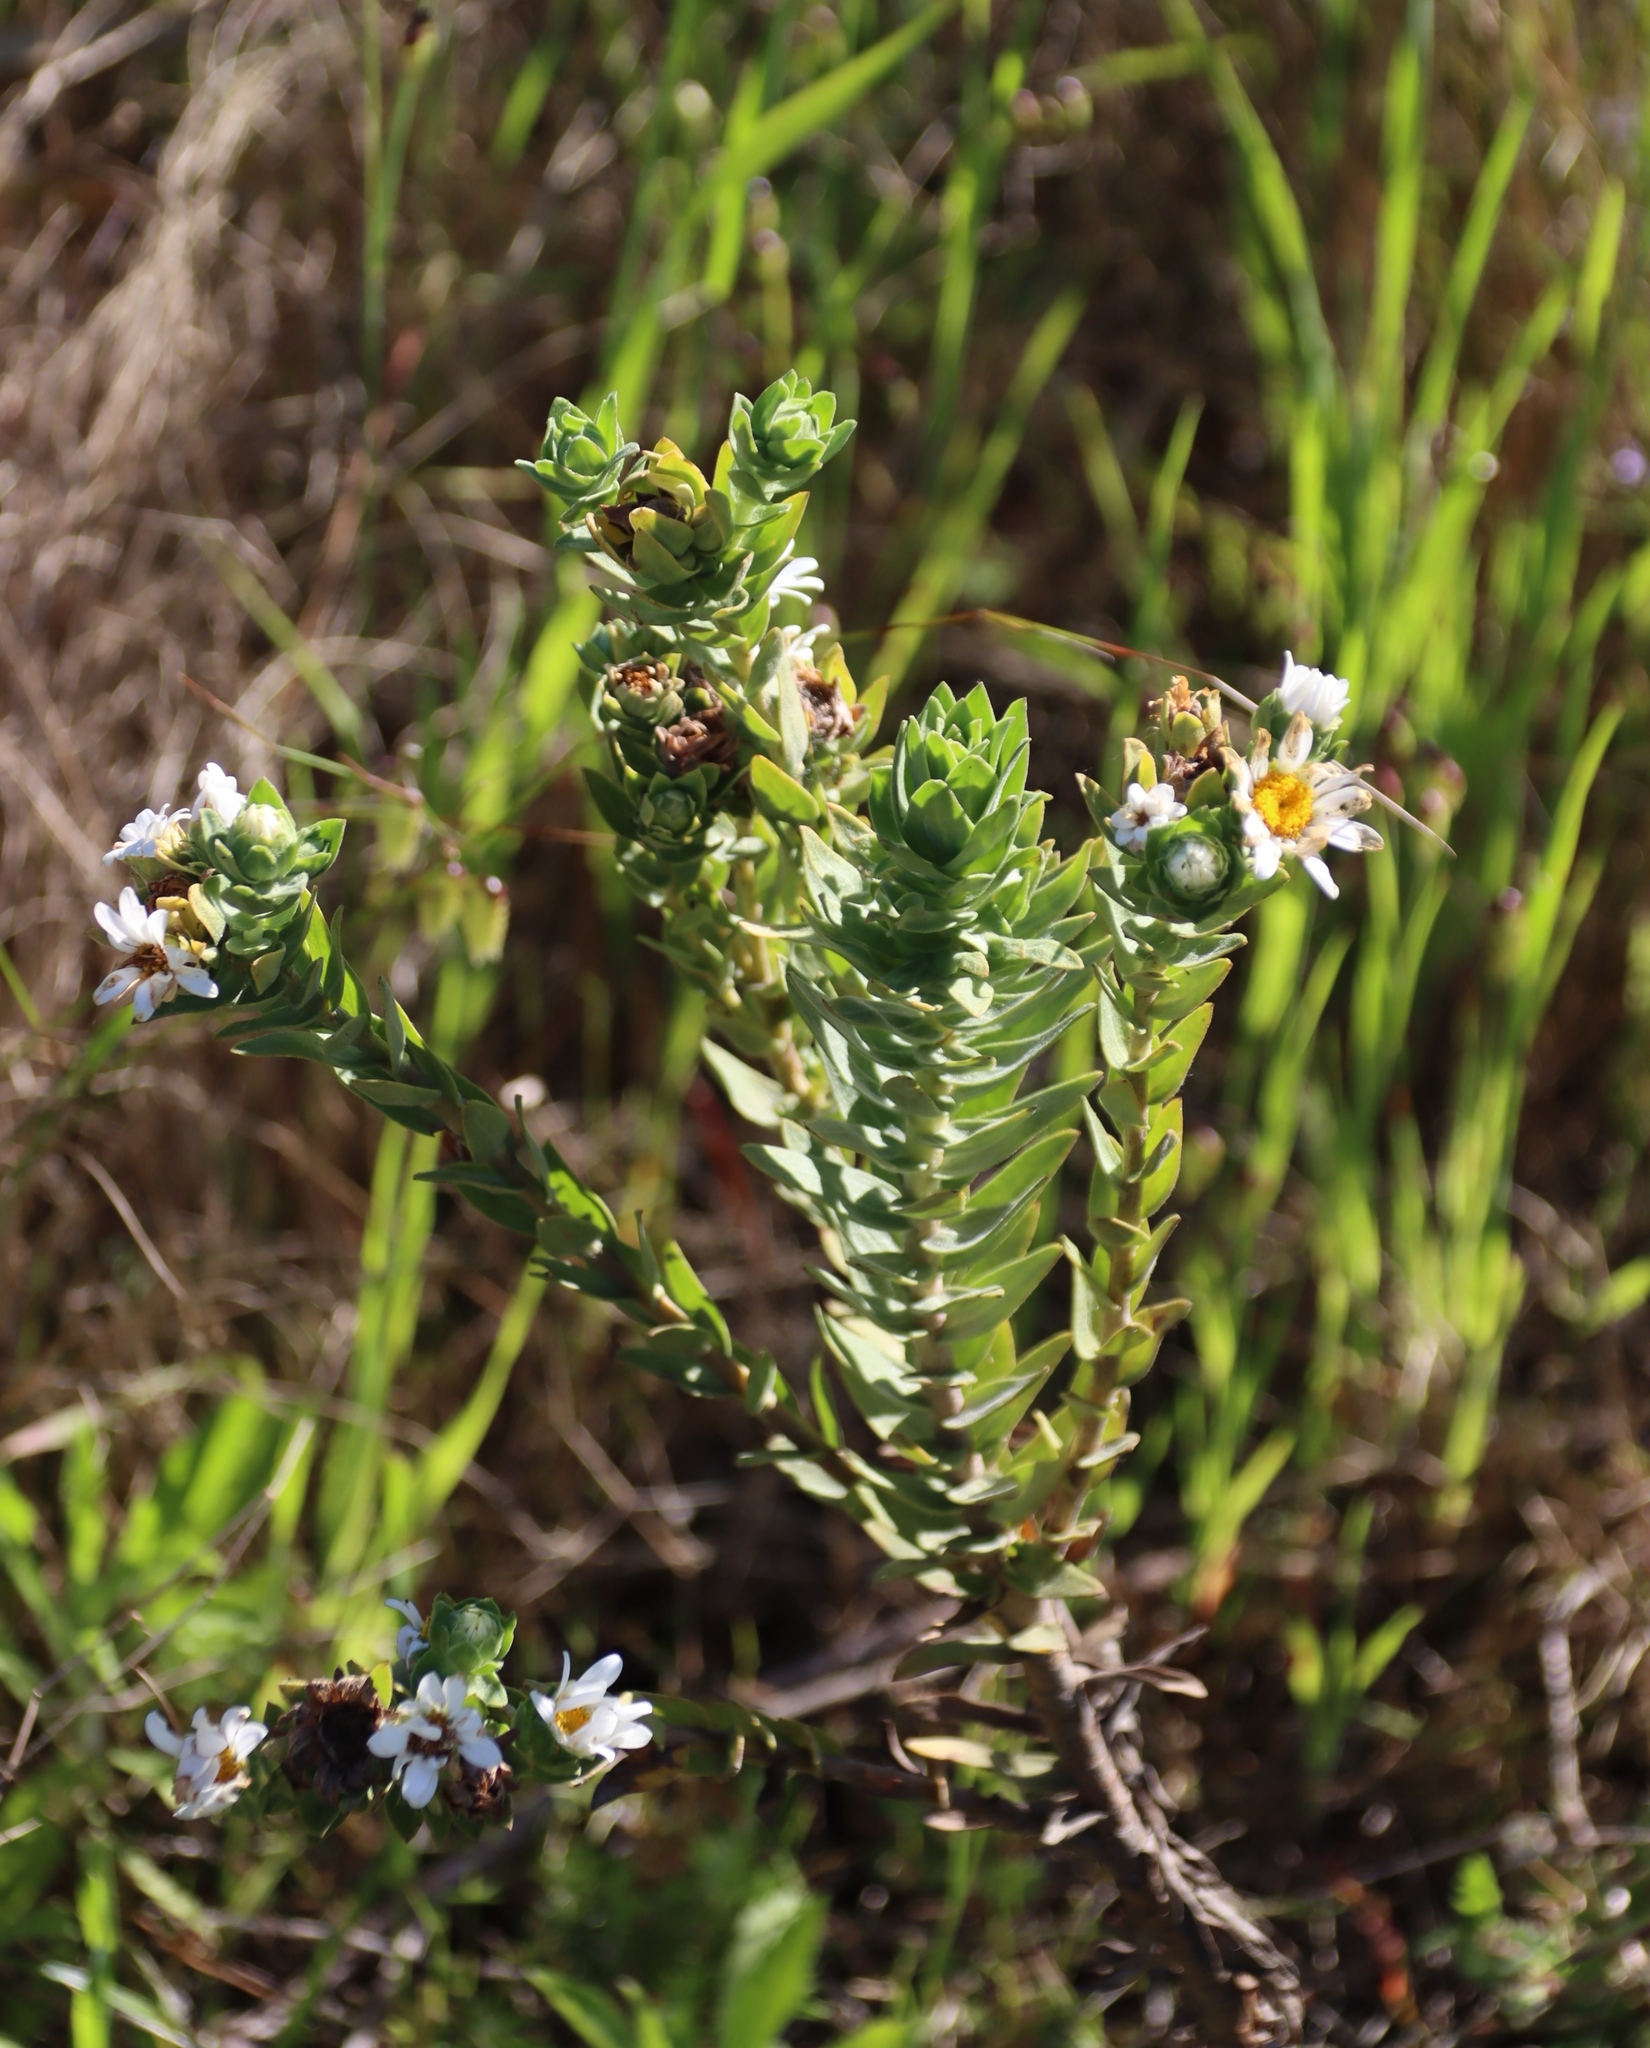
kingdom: Plantae
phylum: Tracheophyta
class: Magnoliopsida
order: Asterales
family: Asteraceae
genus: Osmitopsis
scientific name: Osmitopsis asteriscoides
